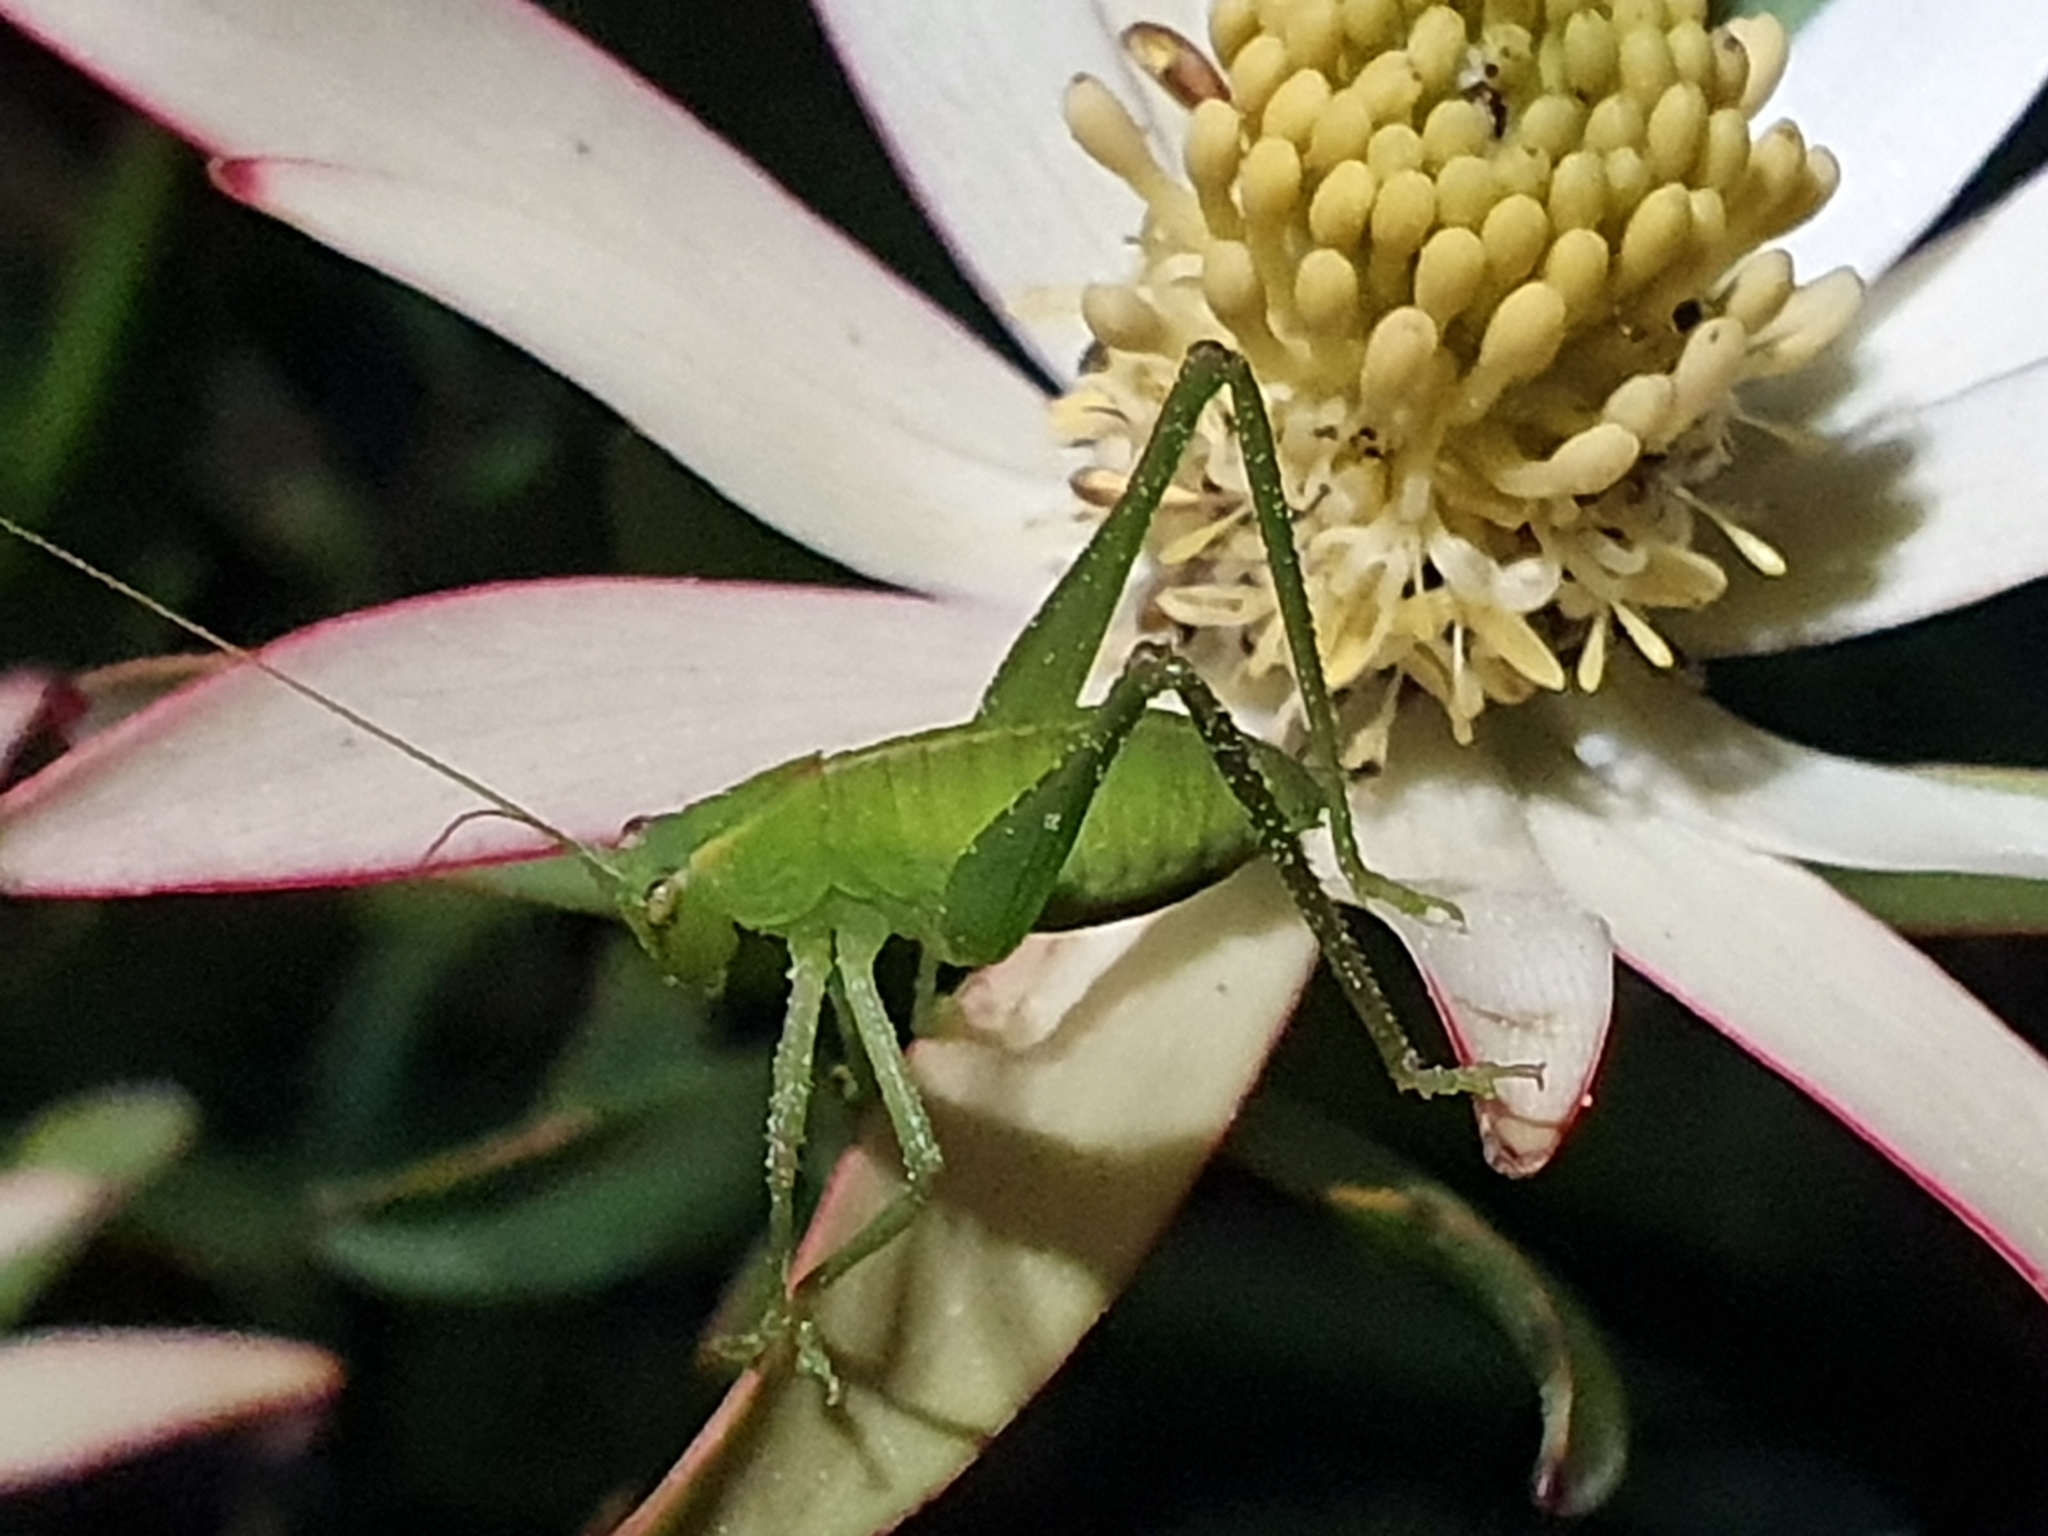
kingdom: Animalia
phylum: Arthropoda
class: Insecta
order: Orthoptera
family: Tettigoniidae
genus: Caedicia
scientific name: Caedicia simplex
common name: Common garden katydid
